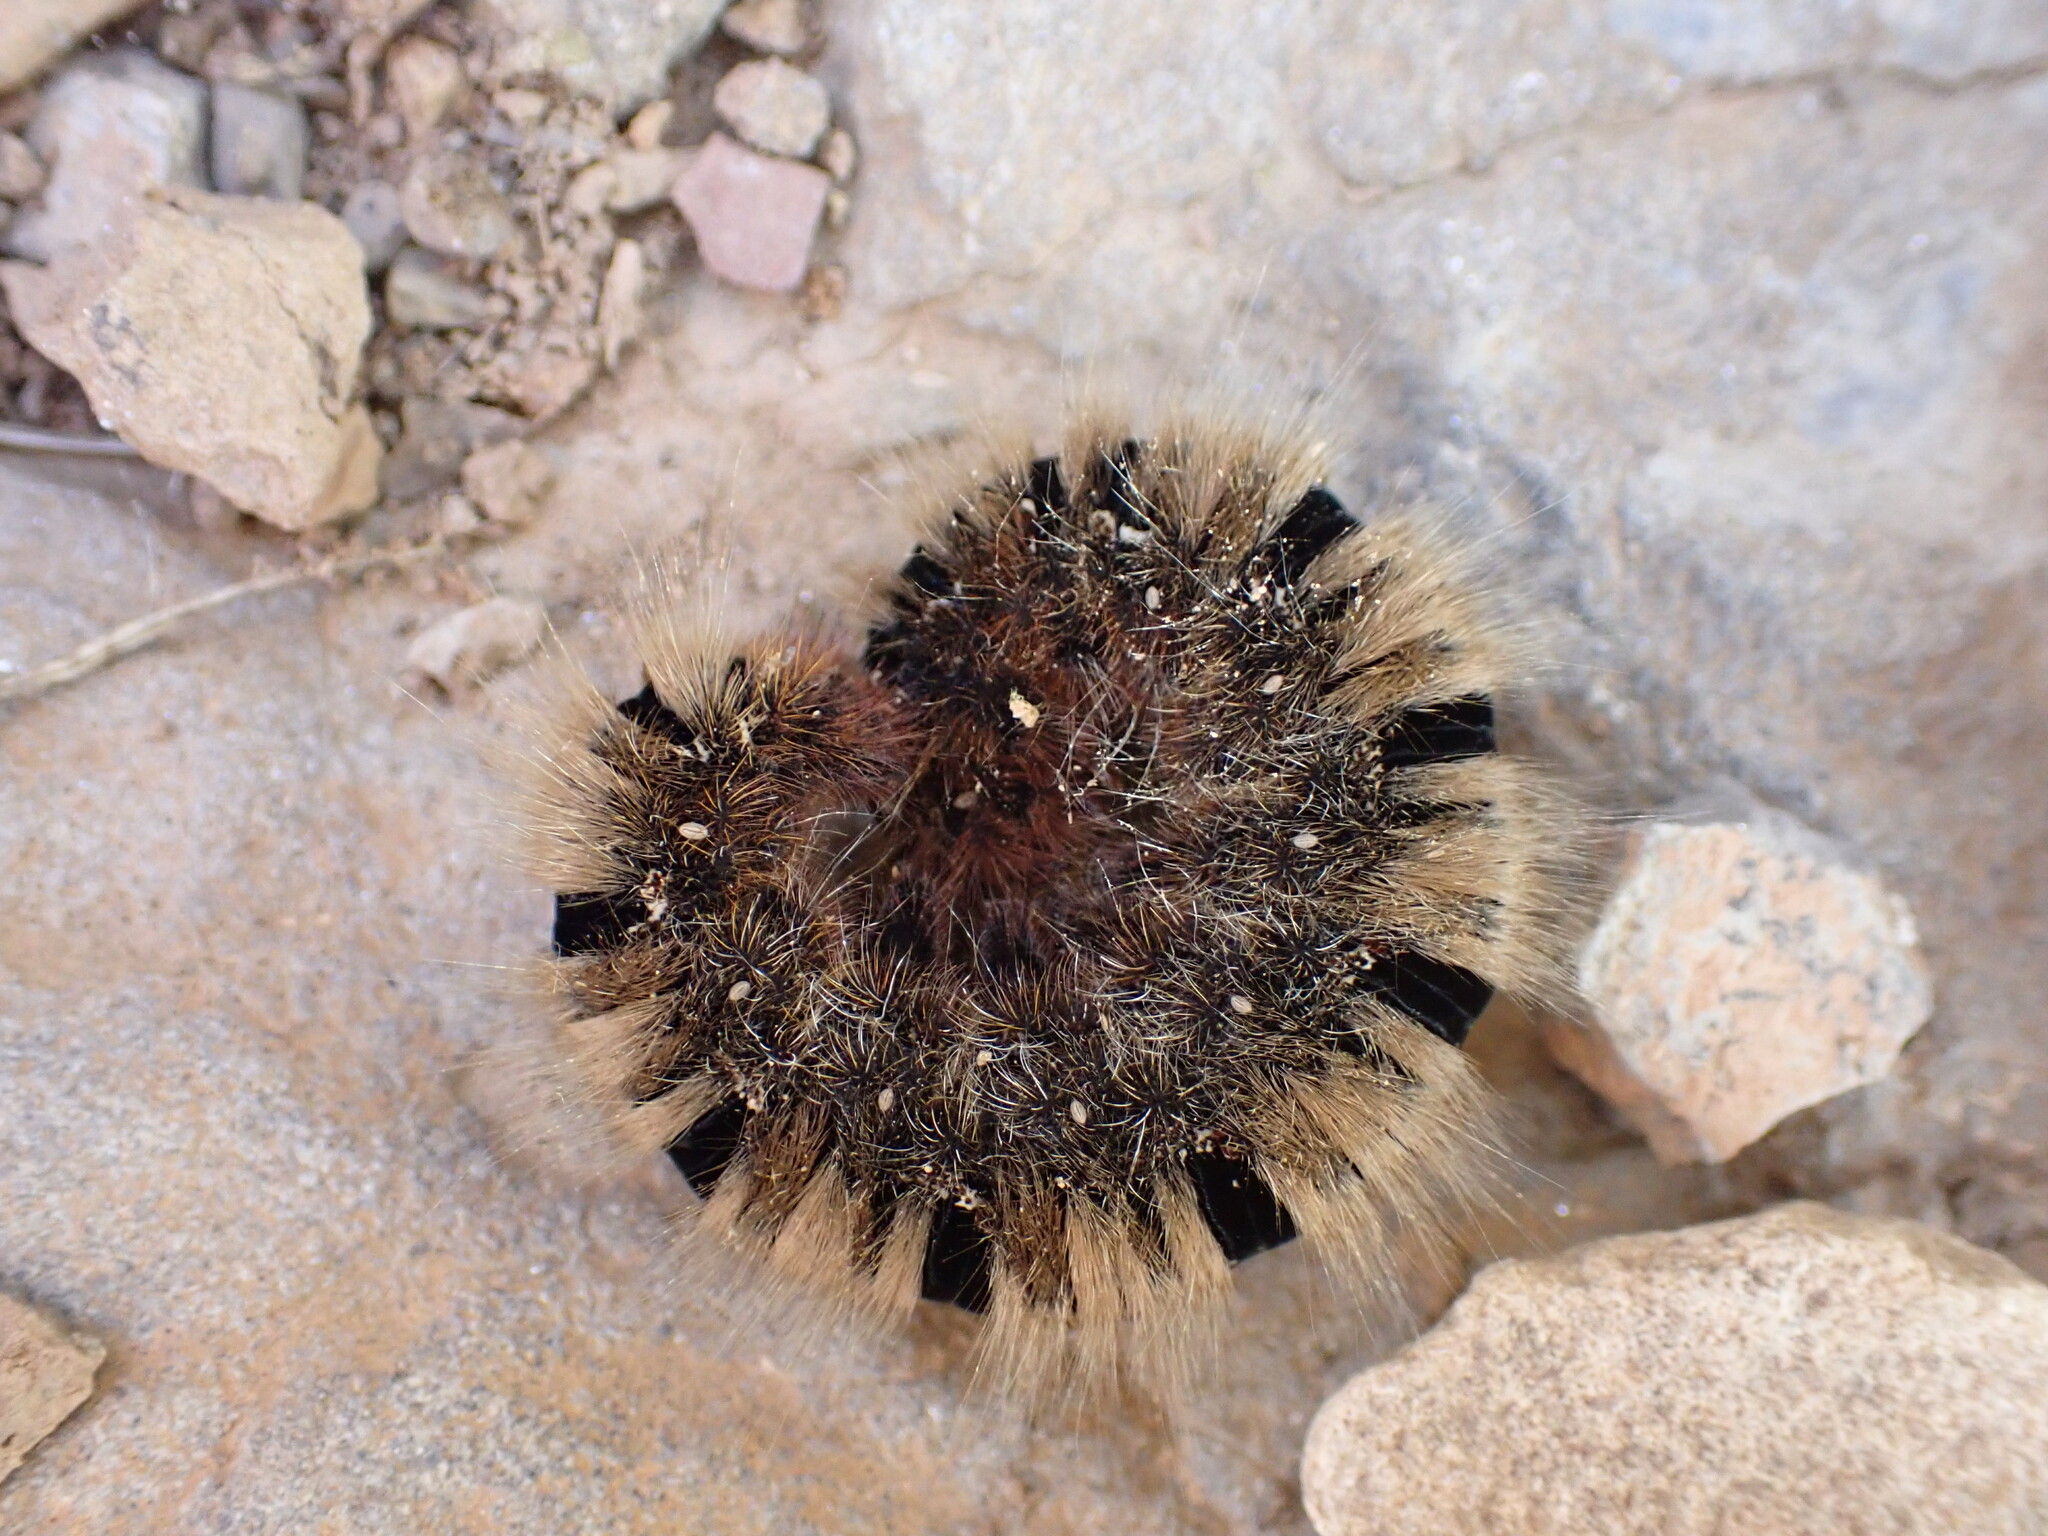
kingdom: Animalia
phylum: Arthropoda
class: Insecta
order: Lepidoptera
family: Lasiocampidae
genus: Lasiocampa
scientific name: Lasiocampa quercus
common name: Oak eggar
